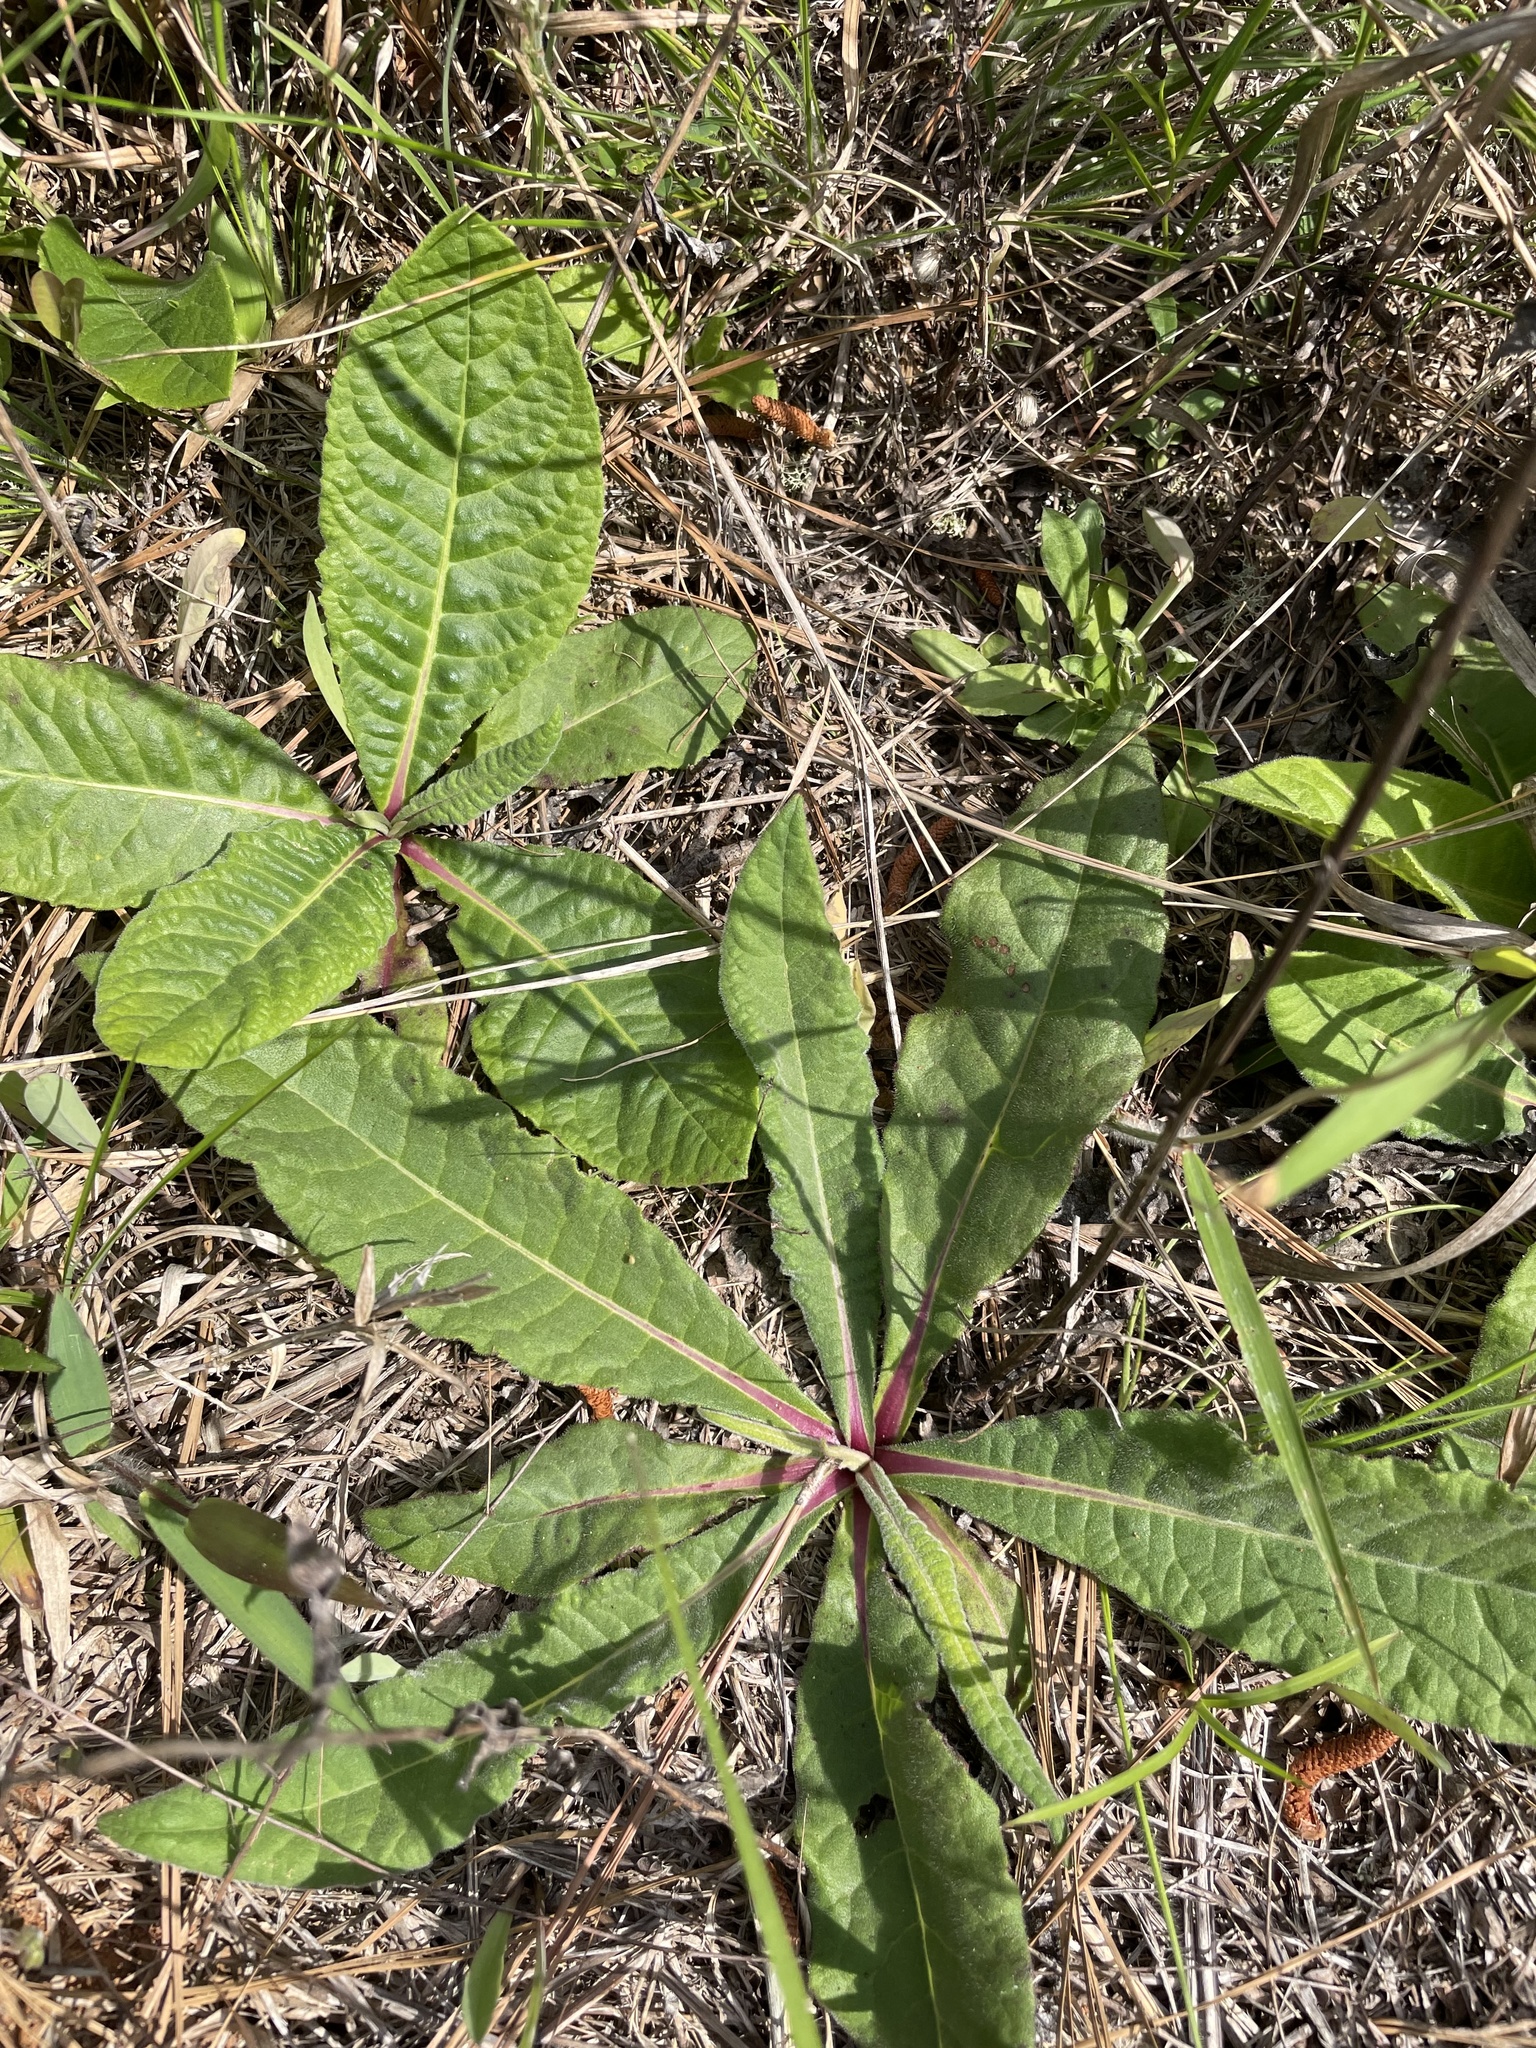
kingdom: Plantae
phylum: Tracheophyta
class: Magnoliopsida
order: Asterales
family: Asteraceae
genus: Vernonia
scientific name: Vernonia acaulis
